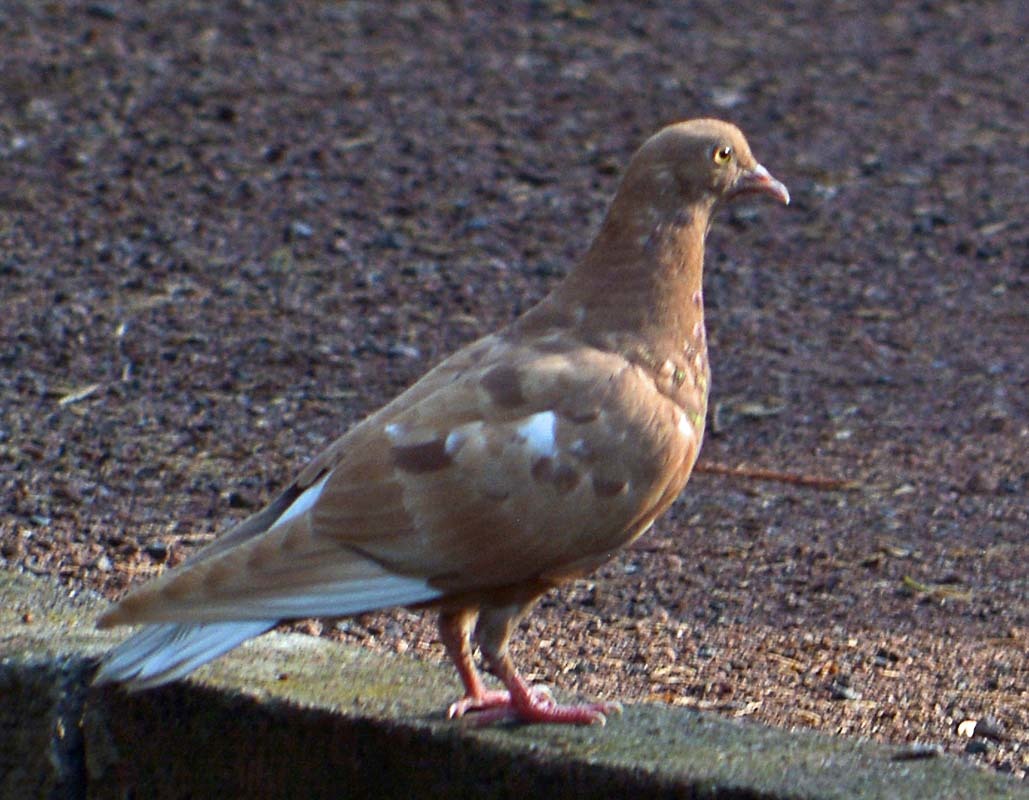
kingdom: Animalia
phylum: Chordata
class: Aves
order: Columbiformes
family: Columbidae
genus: Columba
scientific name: Columba livia
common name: Rock pigeon
